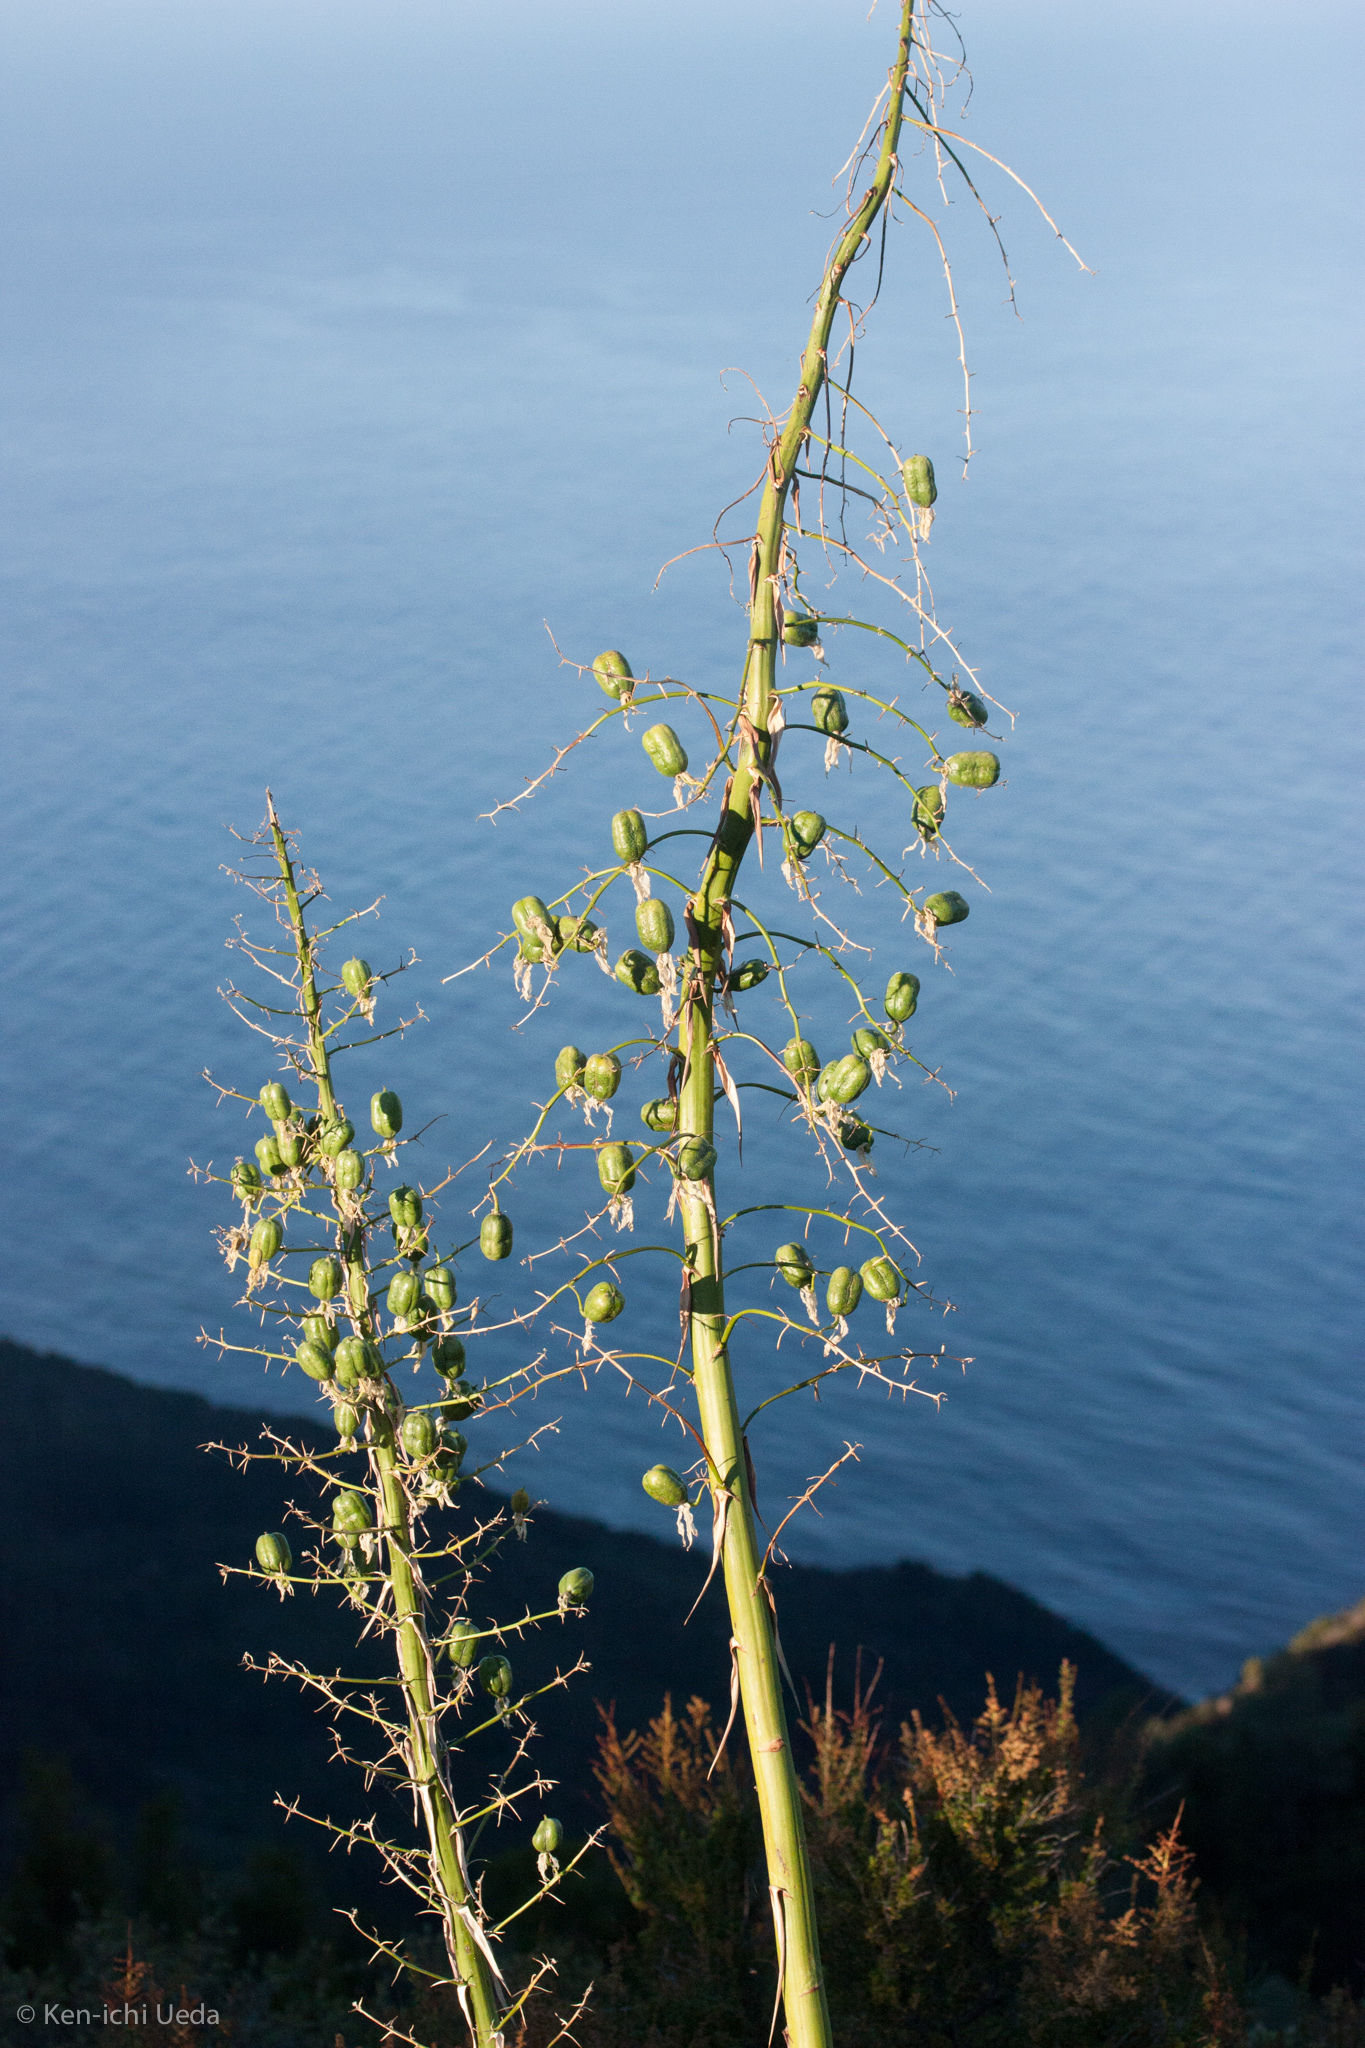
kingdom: Plantae
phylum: Tracheophyta
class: Liliopsida
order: Asparagales
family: Asparagaceae
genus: Hesperoyucca
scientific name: Hesperoyucca whipplei
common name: Our lord's-candle
